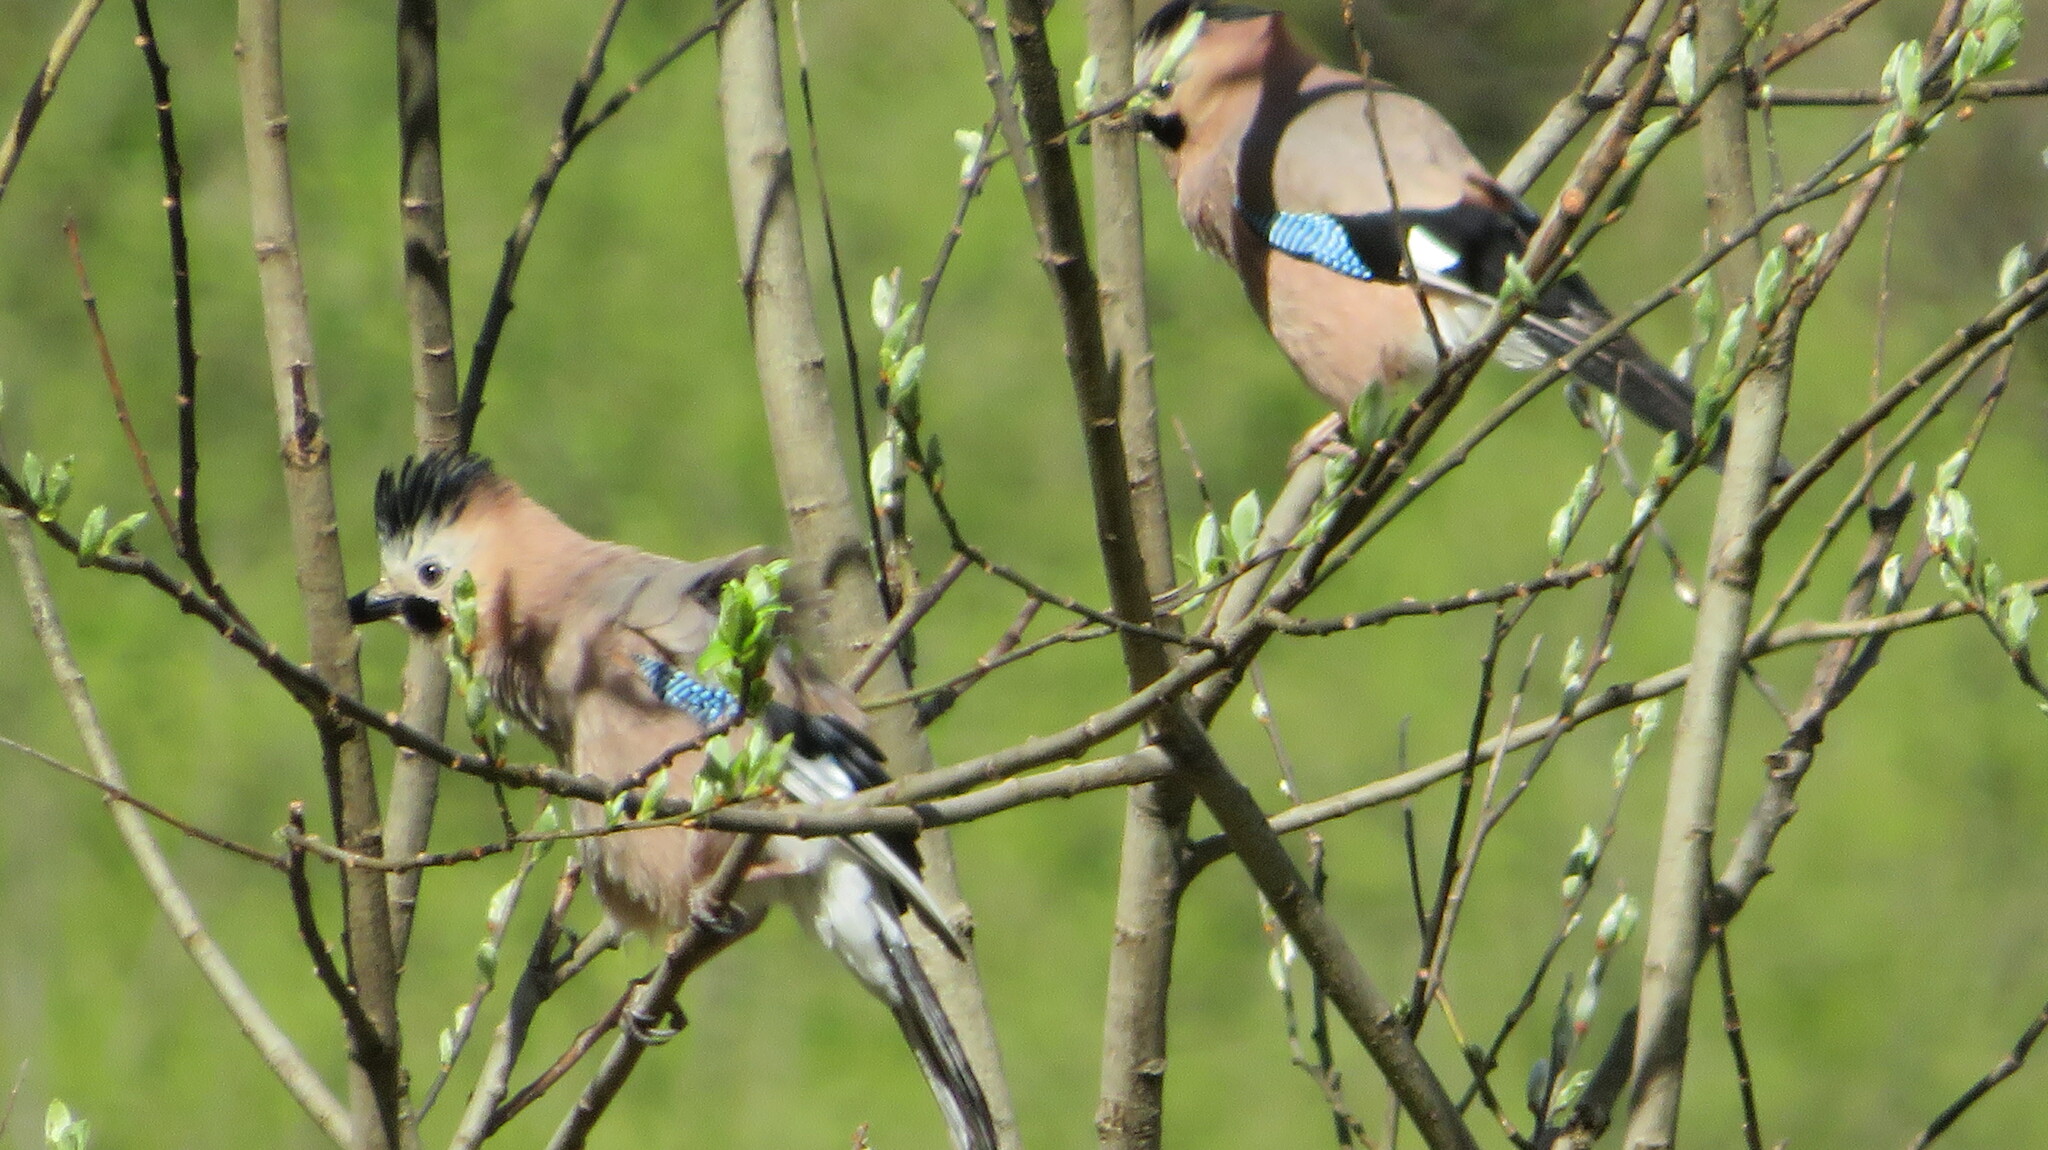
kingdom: Animalia
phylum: Chordata
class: Aves
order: Passeriformes
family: Corvidae
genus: Garrulus
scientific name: Garrulus glandarius
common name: Eurasian jay
